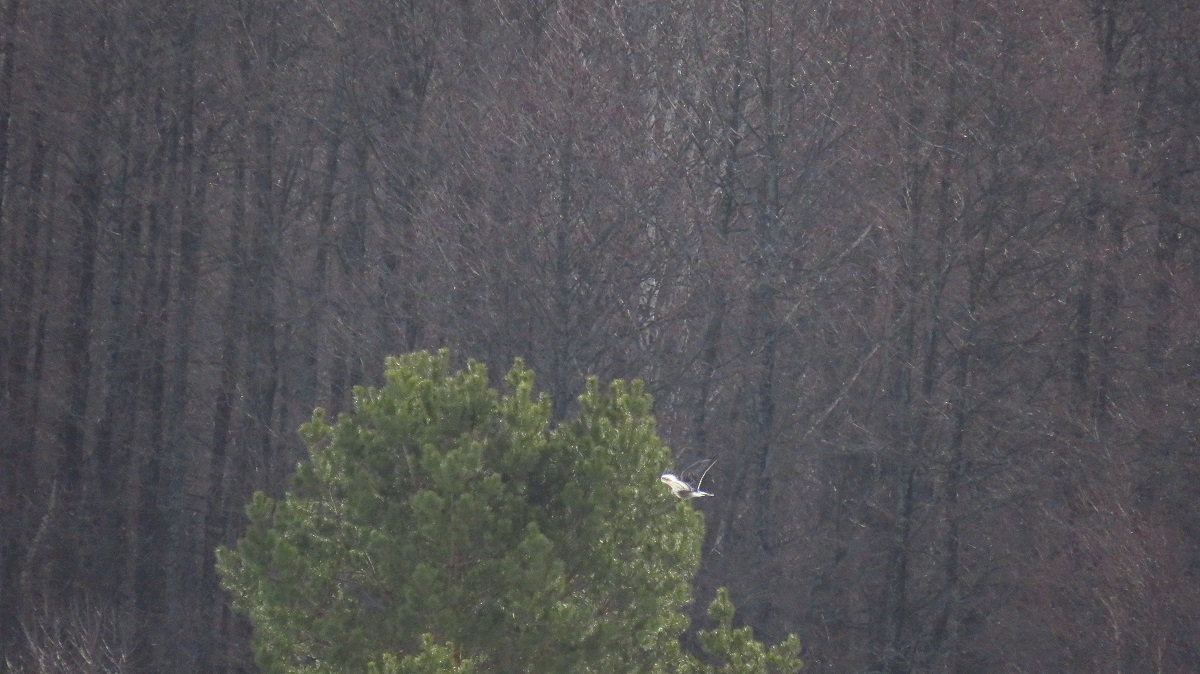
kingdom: Animalia
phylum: Chordata
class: Aves
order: Accipitriformes
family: Accipitridae
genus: Buteo
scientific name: Buteo lagopus
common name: Rough-legged buzzard
